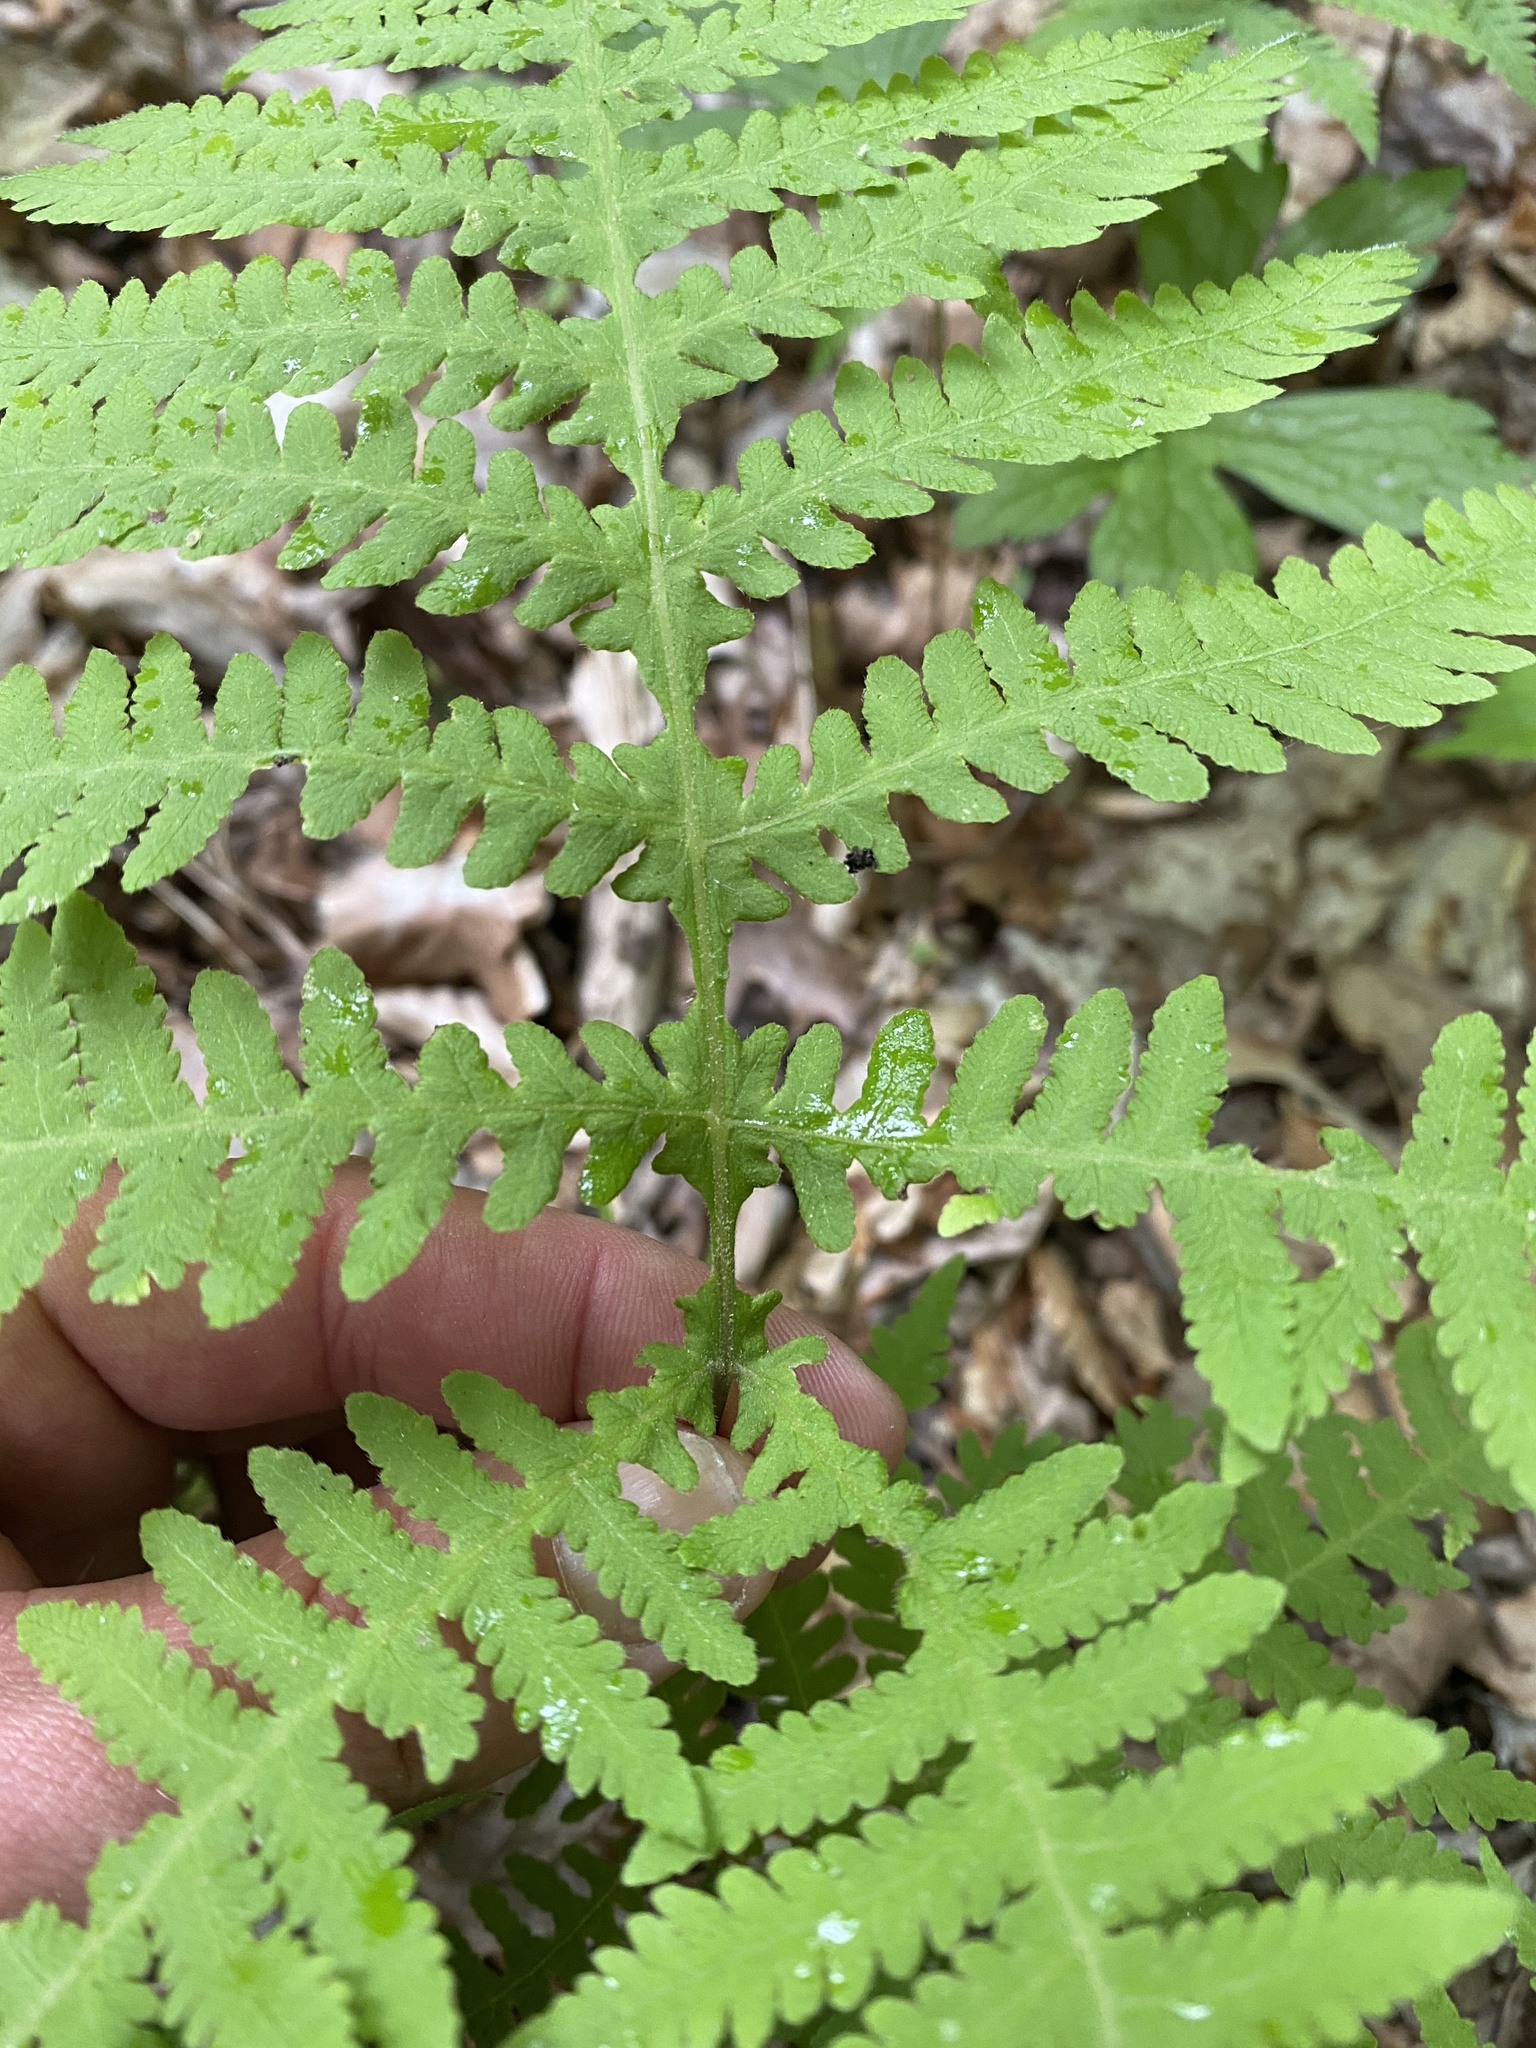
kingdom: Plantae
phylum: Tracheophyta
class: Polypodiopsida
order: Polypodiales
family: Thelypteridaceae
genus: Phegopteris
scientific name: Phegopteris hexagonoptera
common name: Broad beech fern
